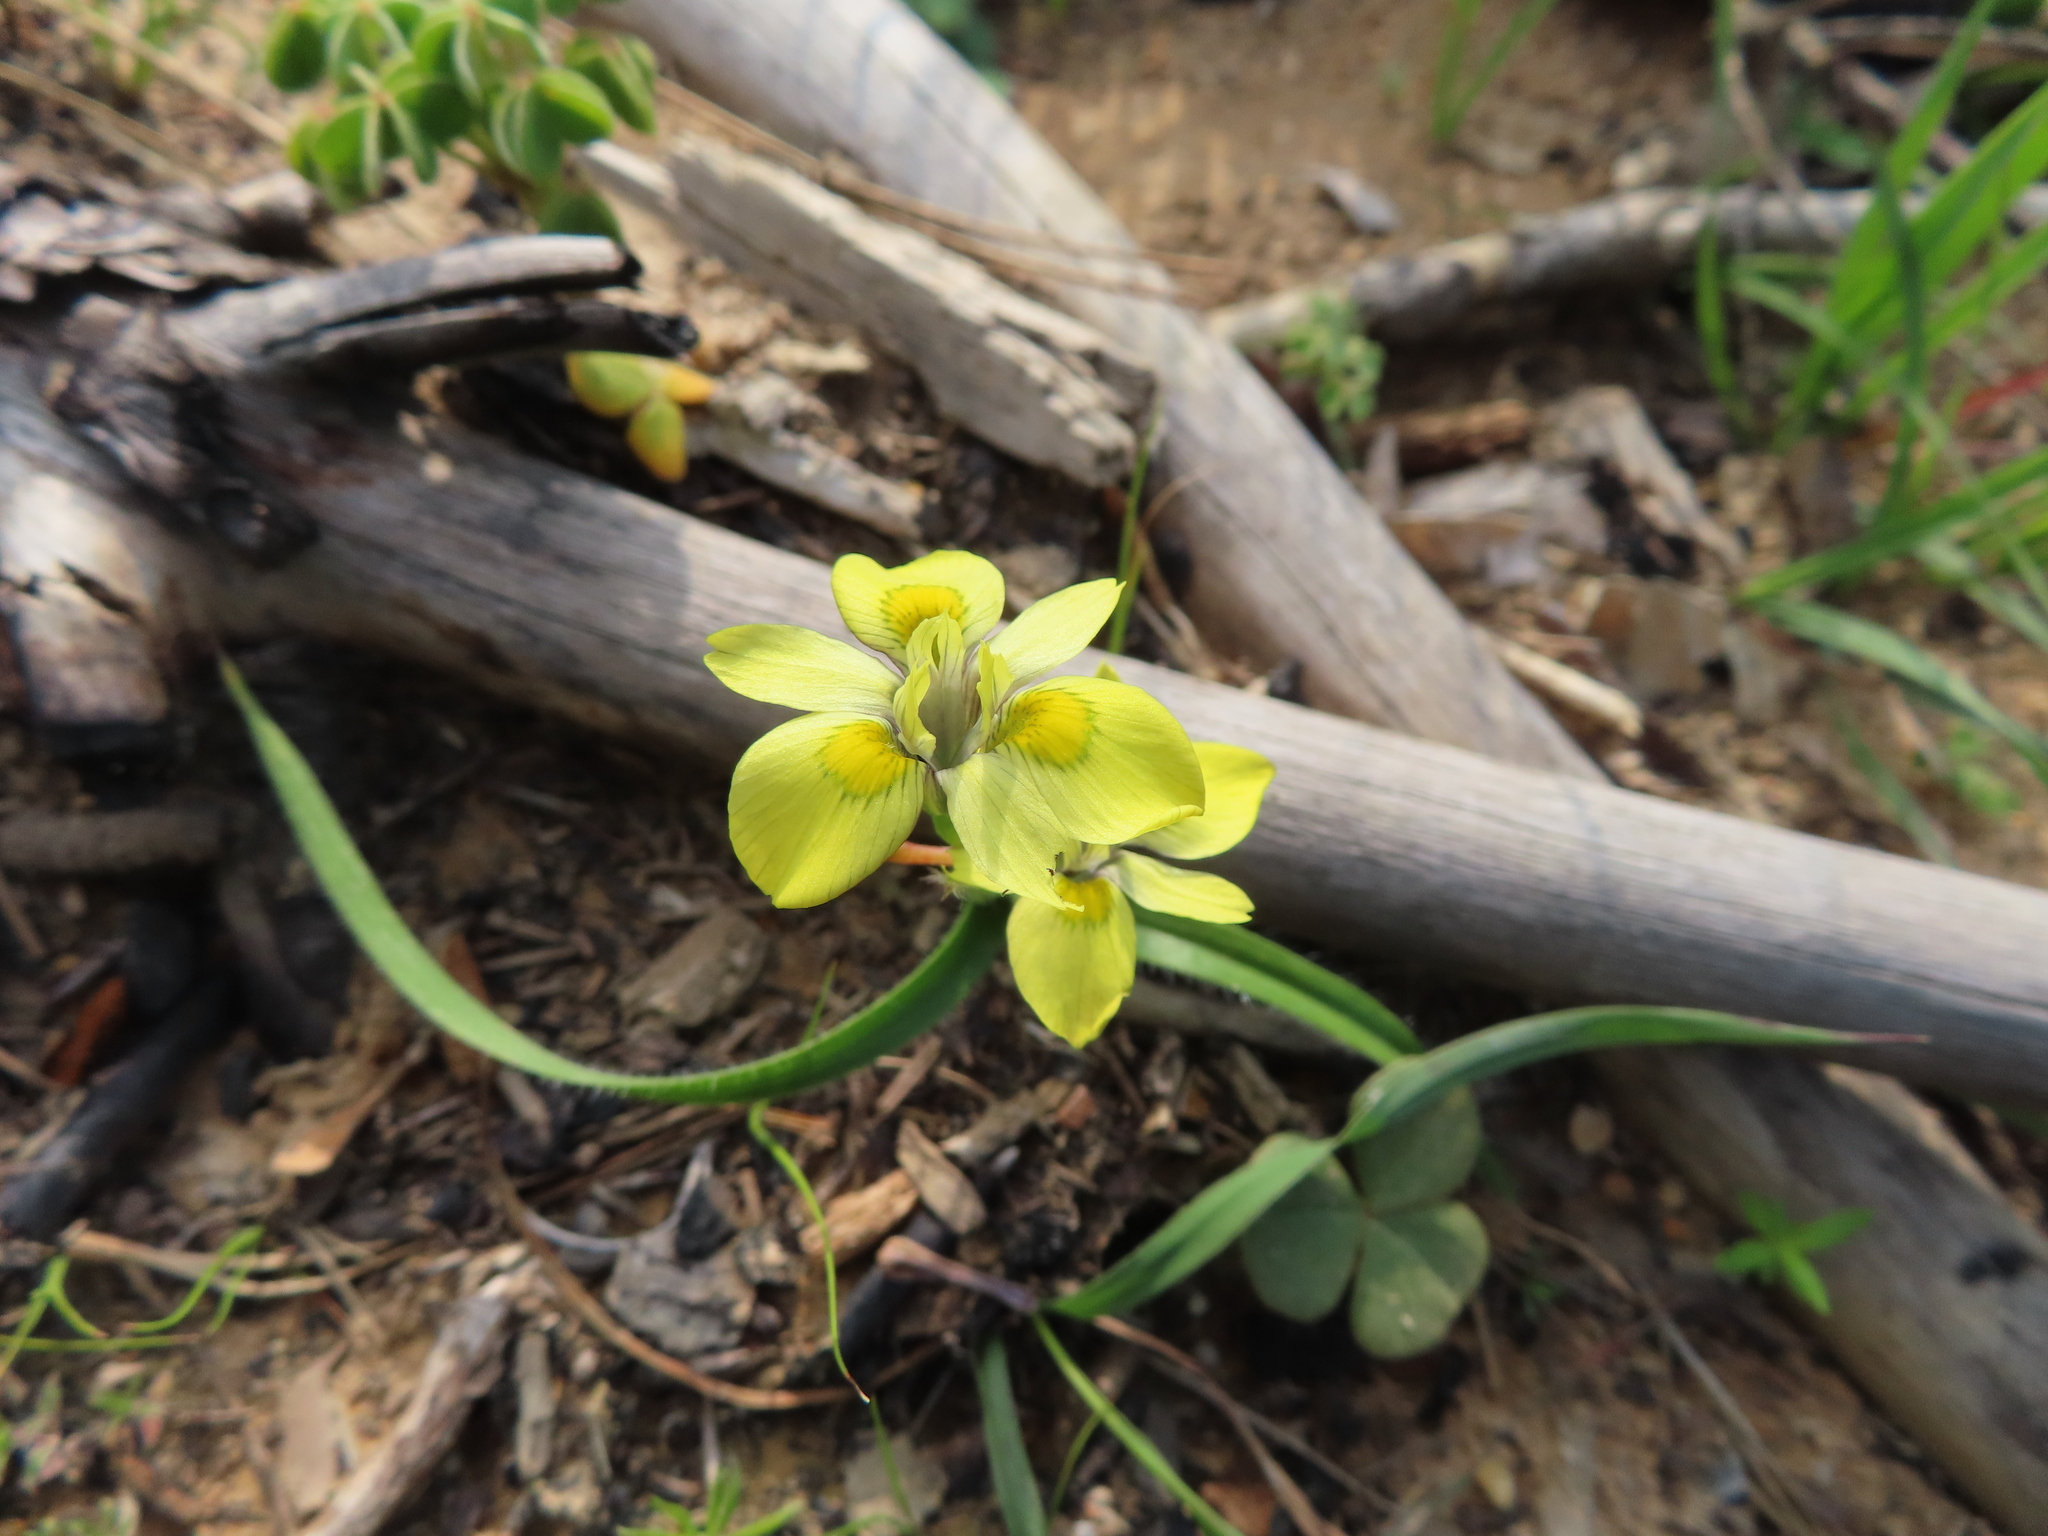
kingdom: Plantae
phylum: Tracheophyta
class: Liliopsida
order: Asparagales
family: Iridaceae
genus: Moraea
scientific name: Moraea papilionacea
